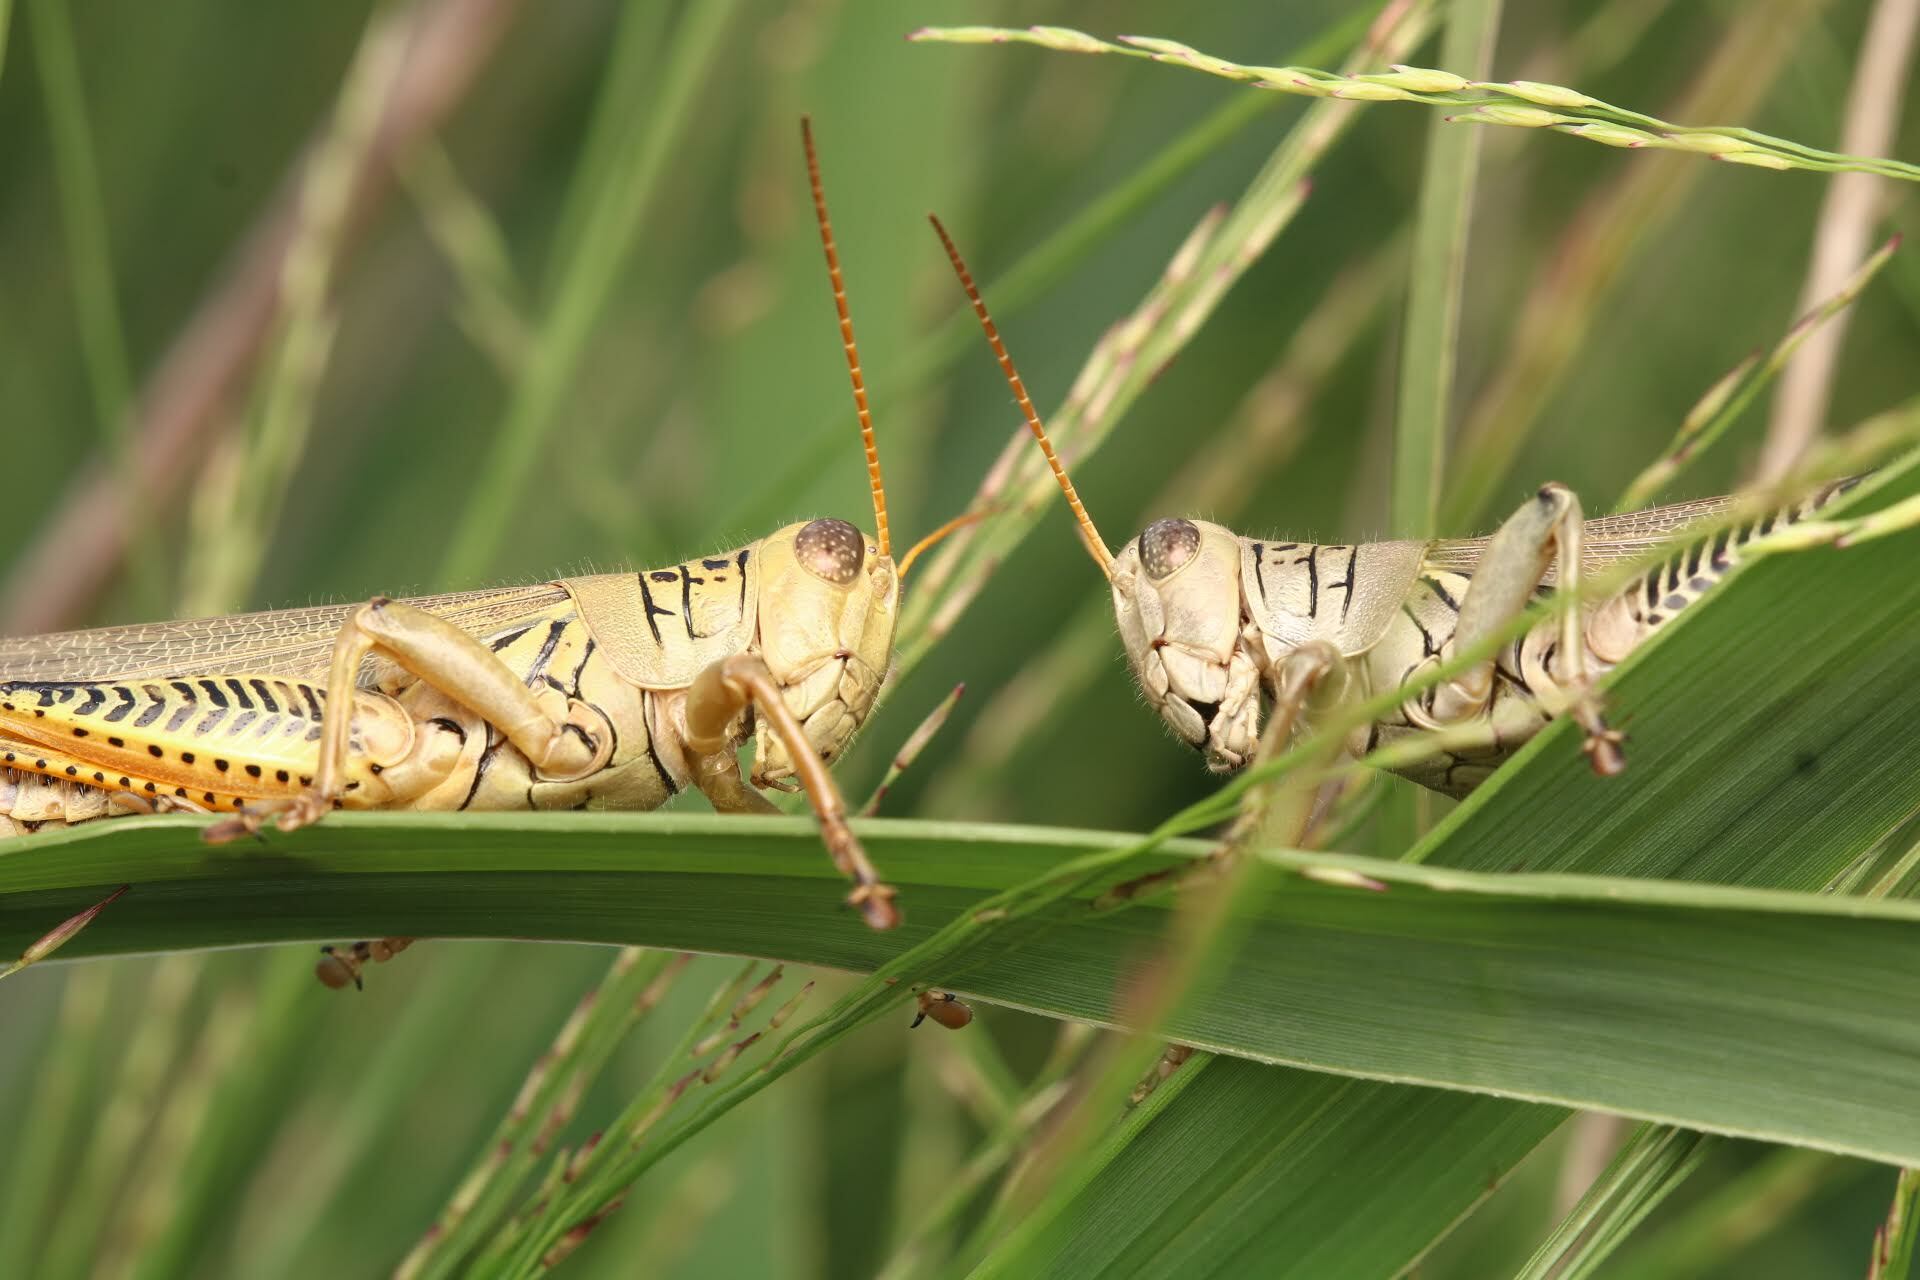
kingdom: Animalia
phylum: Arthropoda
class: Insecta
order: Orthoptera
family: Acrididae
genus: Melanoplus
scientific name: Melanoplus differentialis
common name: Differential grasshopper
